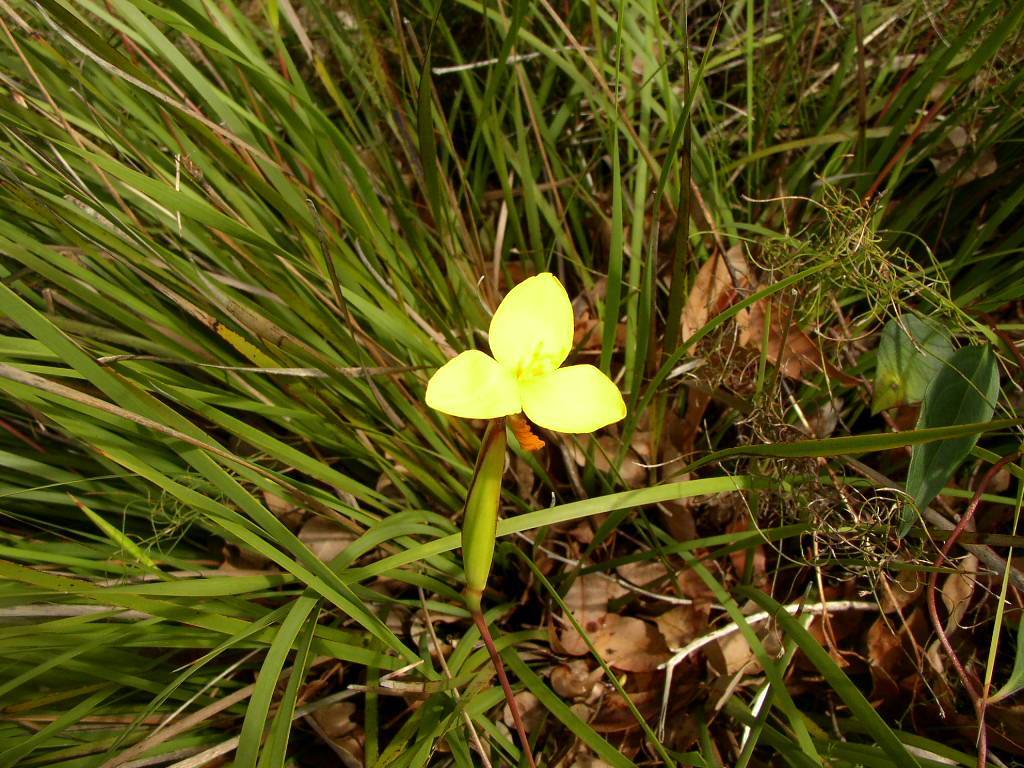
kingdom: Plantae
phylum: Tracheophyta
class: Liliopsida
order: Asparagales
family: Iridaceae
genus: Patersonia
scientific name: Patersonia umbrosa
